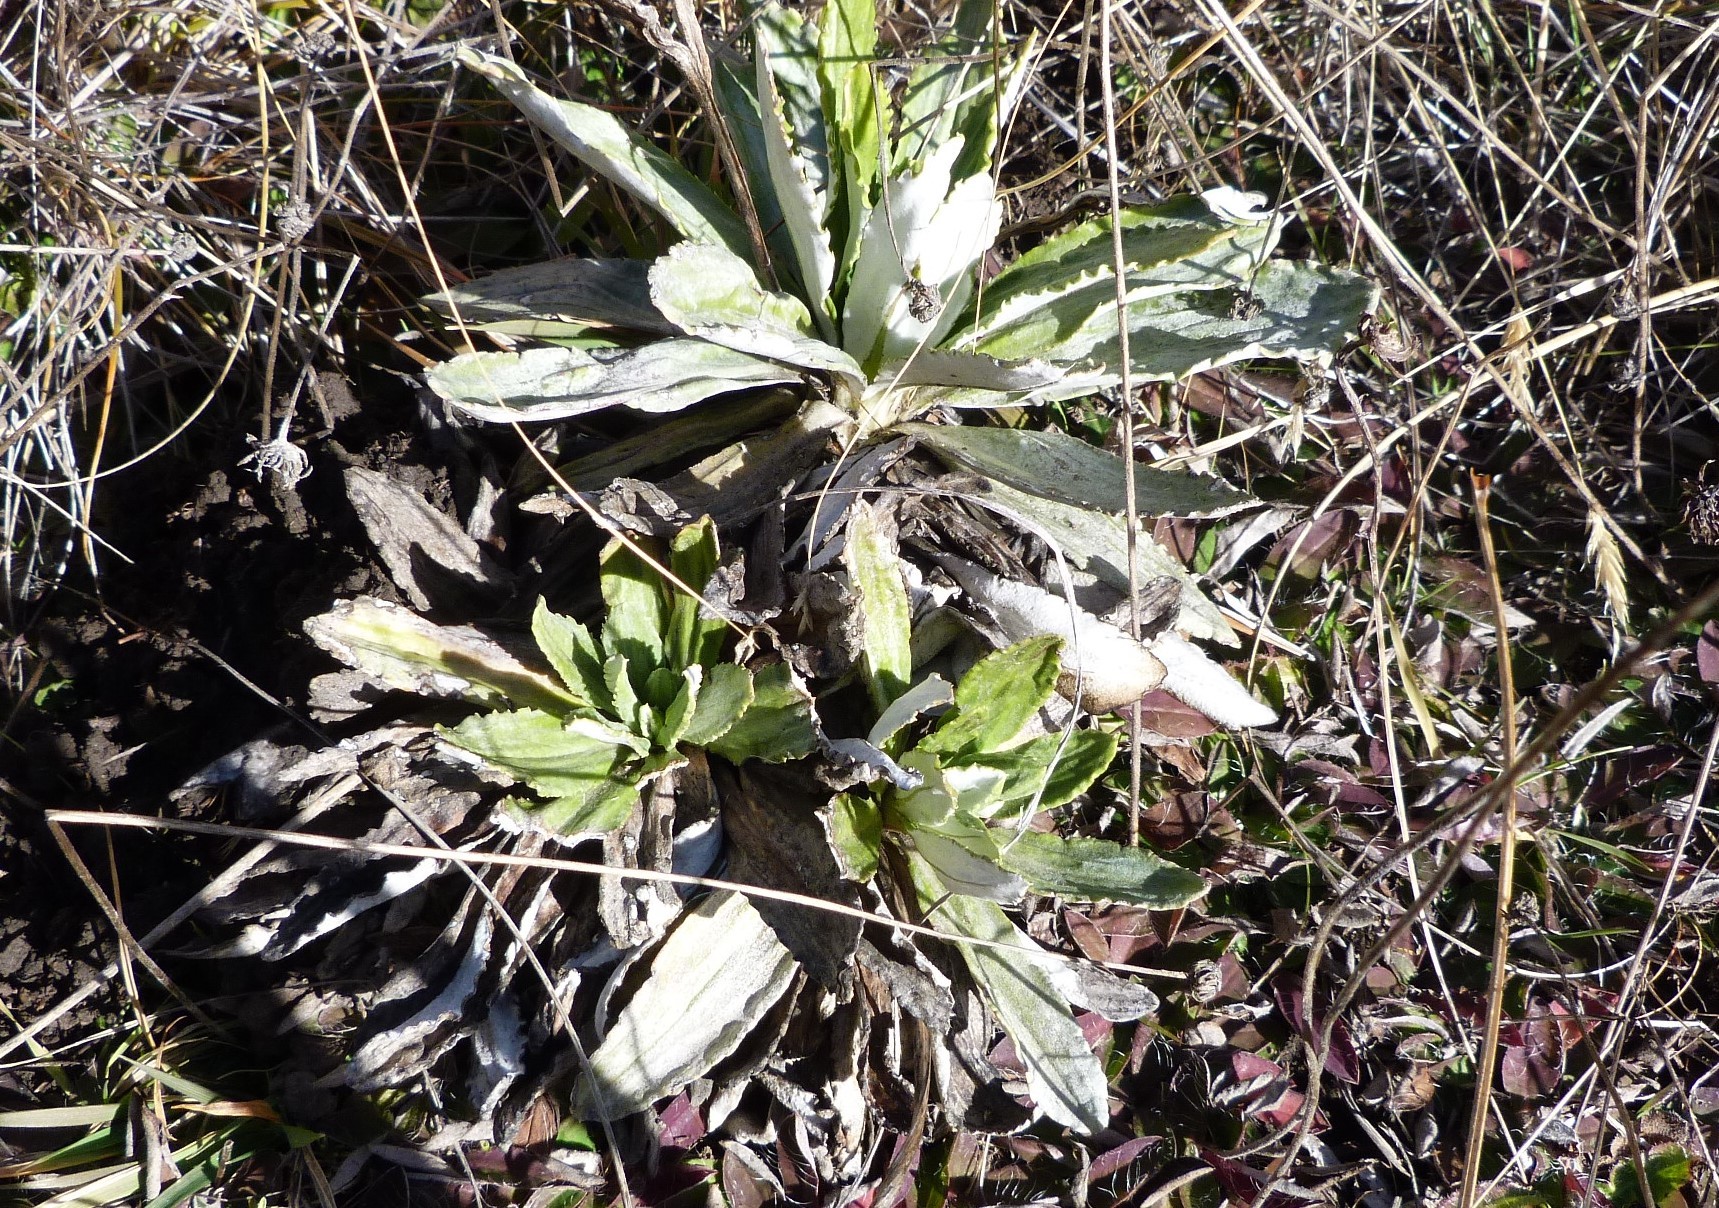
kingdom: Plantae
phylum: Tracheophyta
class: Magnoliopsida
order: Asterales
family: Asteraceae
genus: Celmisia
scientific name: Celmisia densiflora
